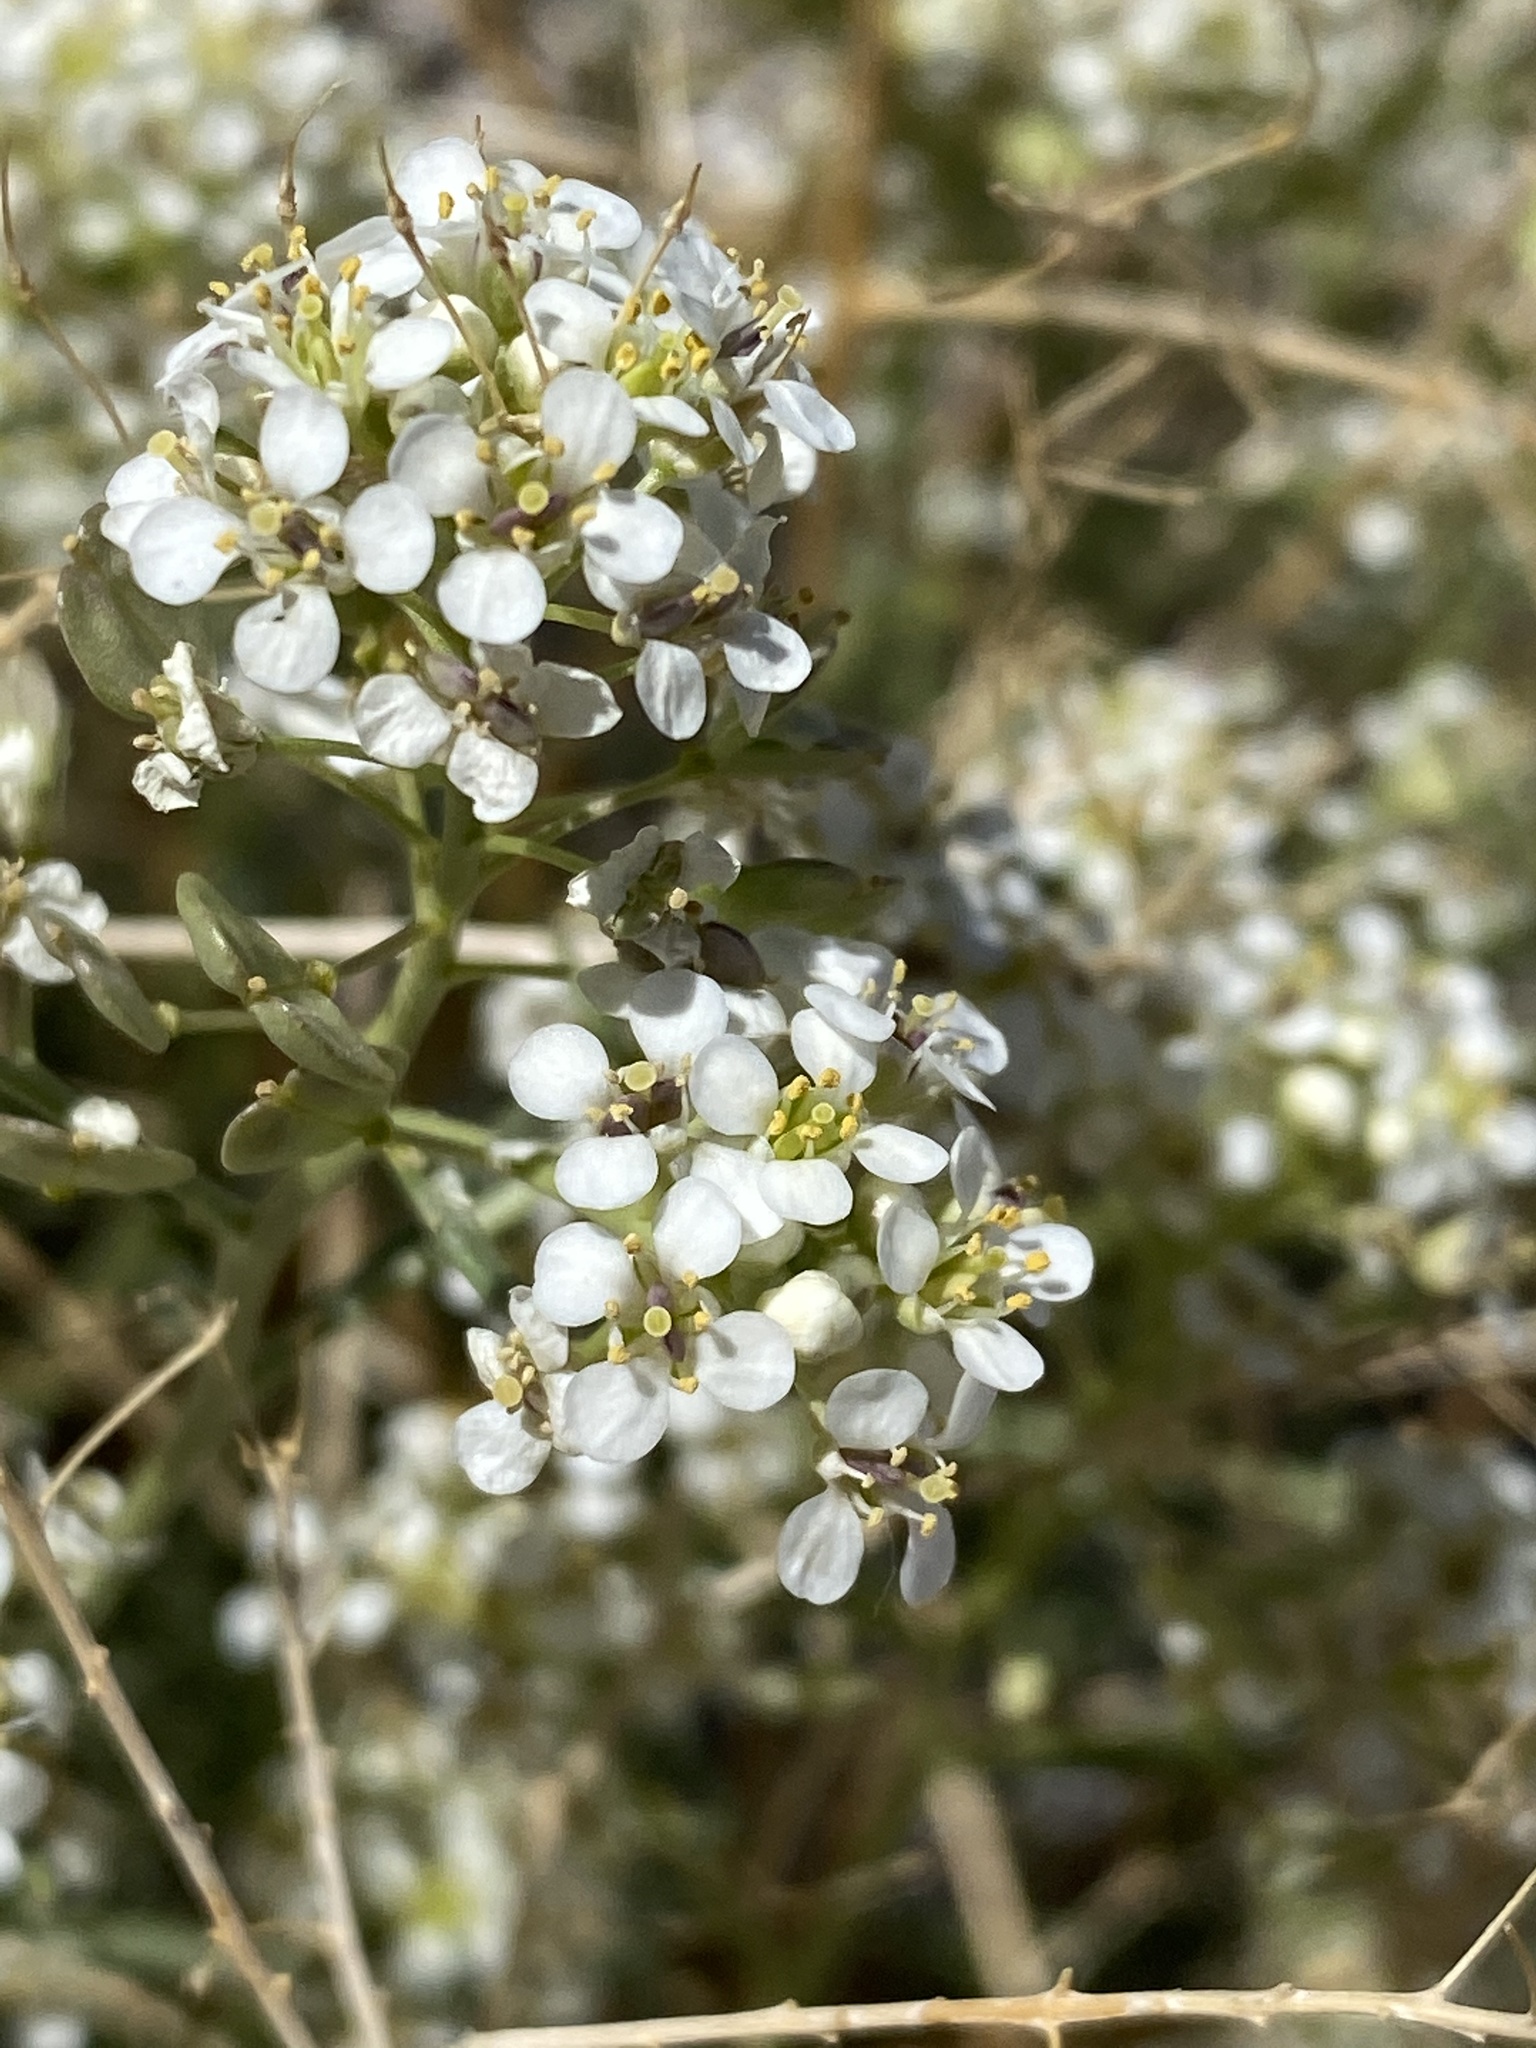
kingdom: Plantae
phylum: Tracheophyta
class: Magnoliopsida
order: Brassicales
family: Brassicaceae
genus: Lepidium
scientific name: Lepidium fremontii
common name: Fremont's pepperwort
